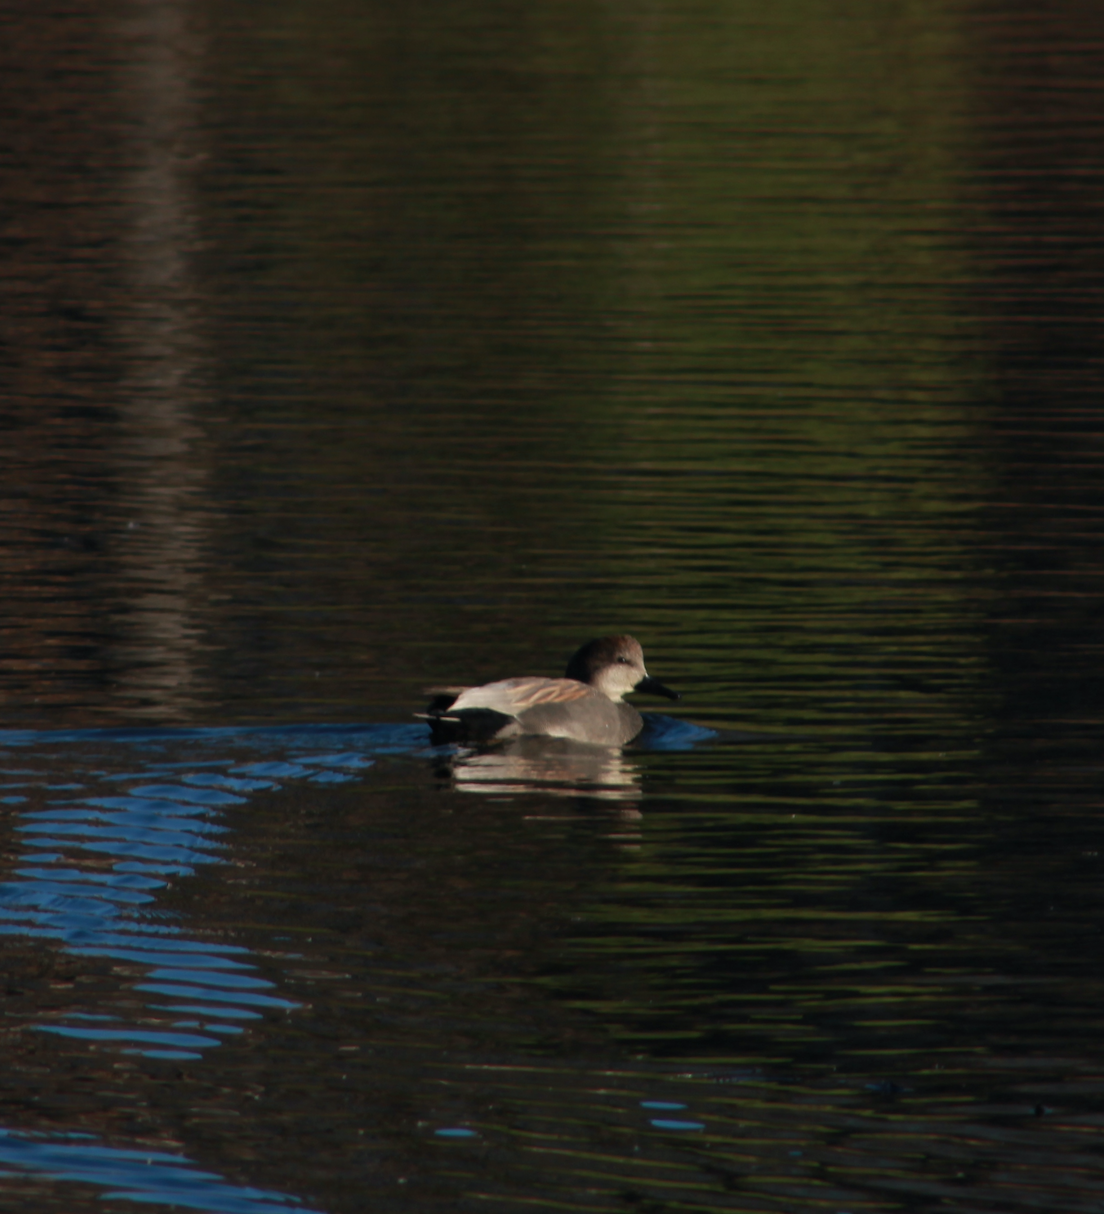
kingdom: Animalia
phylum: Chordata
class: Aves
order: Anseriformes
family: Anatidae
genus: Mareca
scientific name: Mareca strepera
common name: Gadwall
